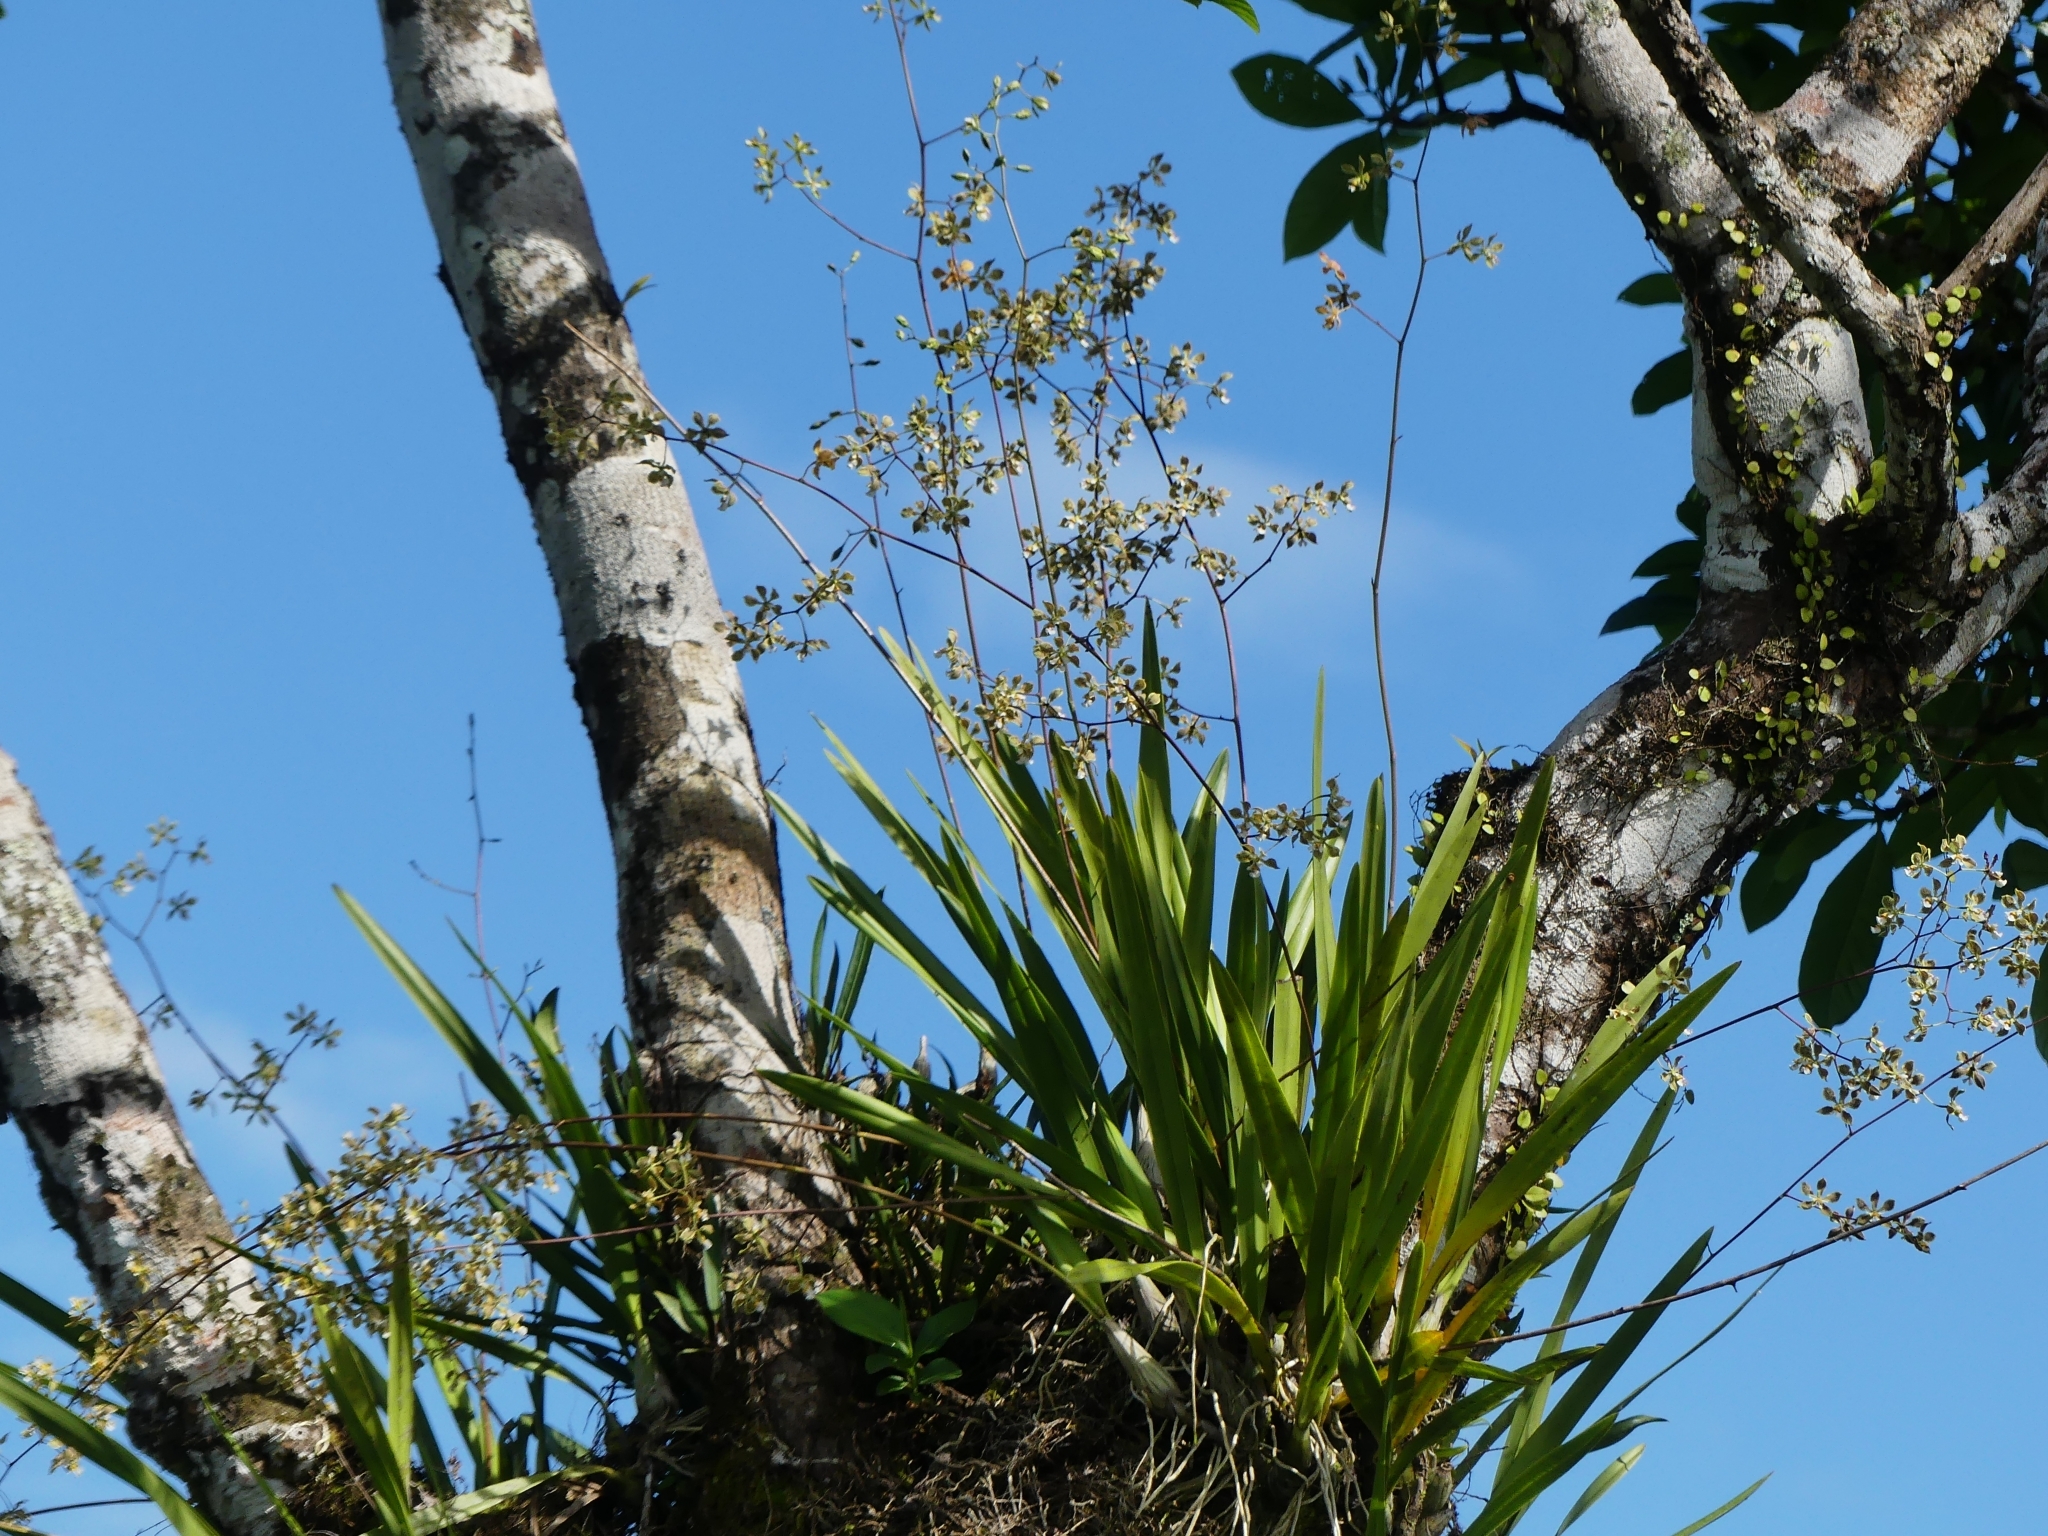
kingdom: Plantae
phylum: Tracheophyta
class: Liliopsida
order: Asparagales
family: Orchidaceae
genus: Encyclia
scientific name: Encyclia granitica
